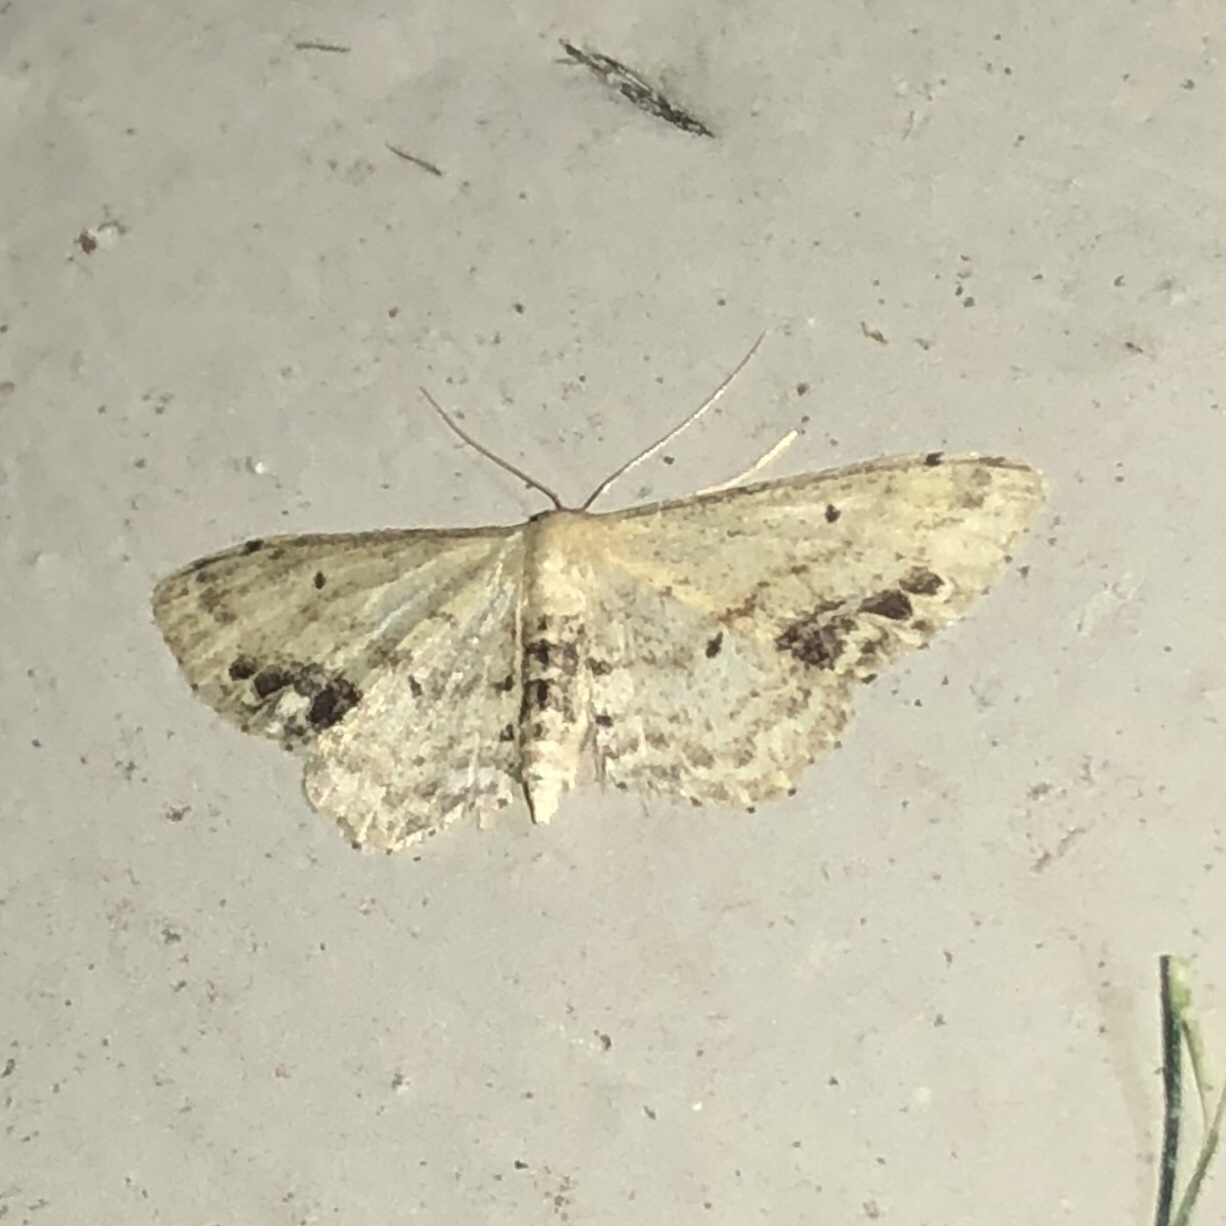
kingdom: Animalia
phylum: Arthropoda
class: Insecta
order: Lepidoptera
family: Geometridae
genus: Idaea
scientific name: Idaea dimidiata
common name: Single-dotted wave
